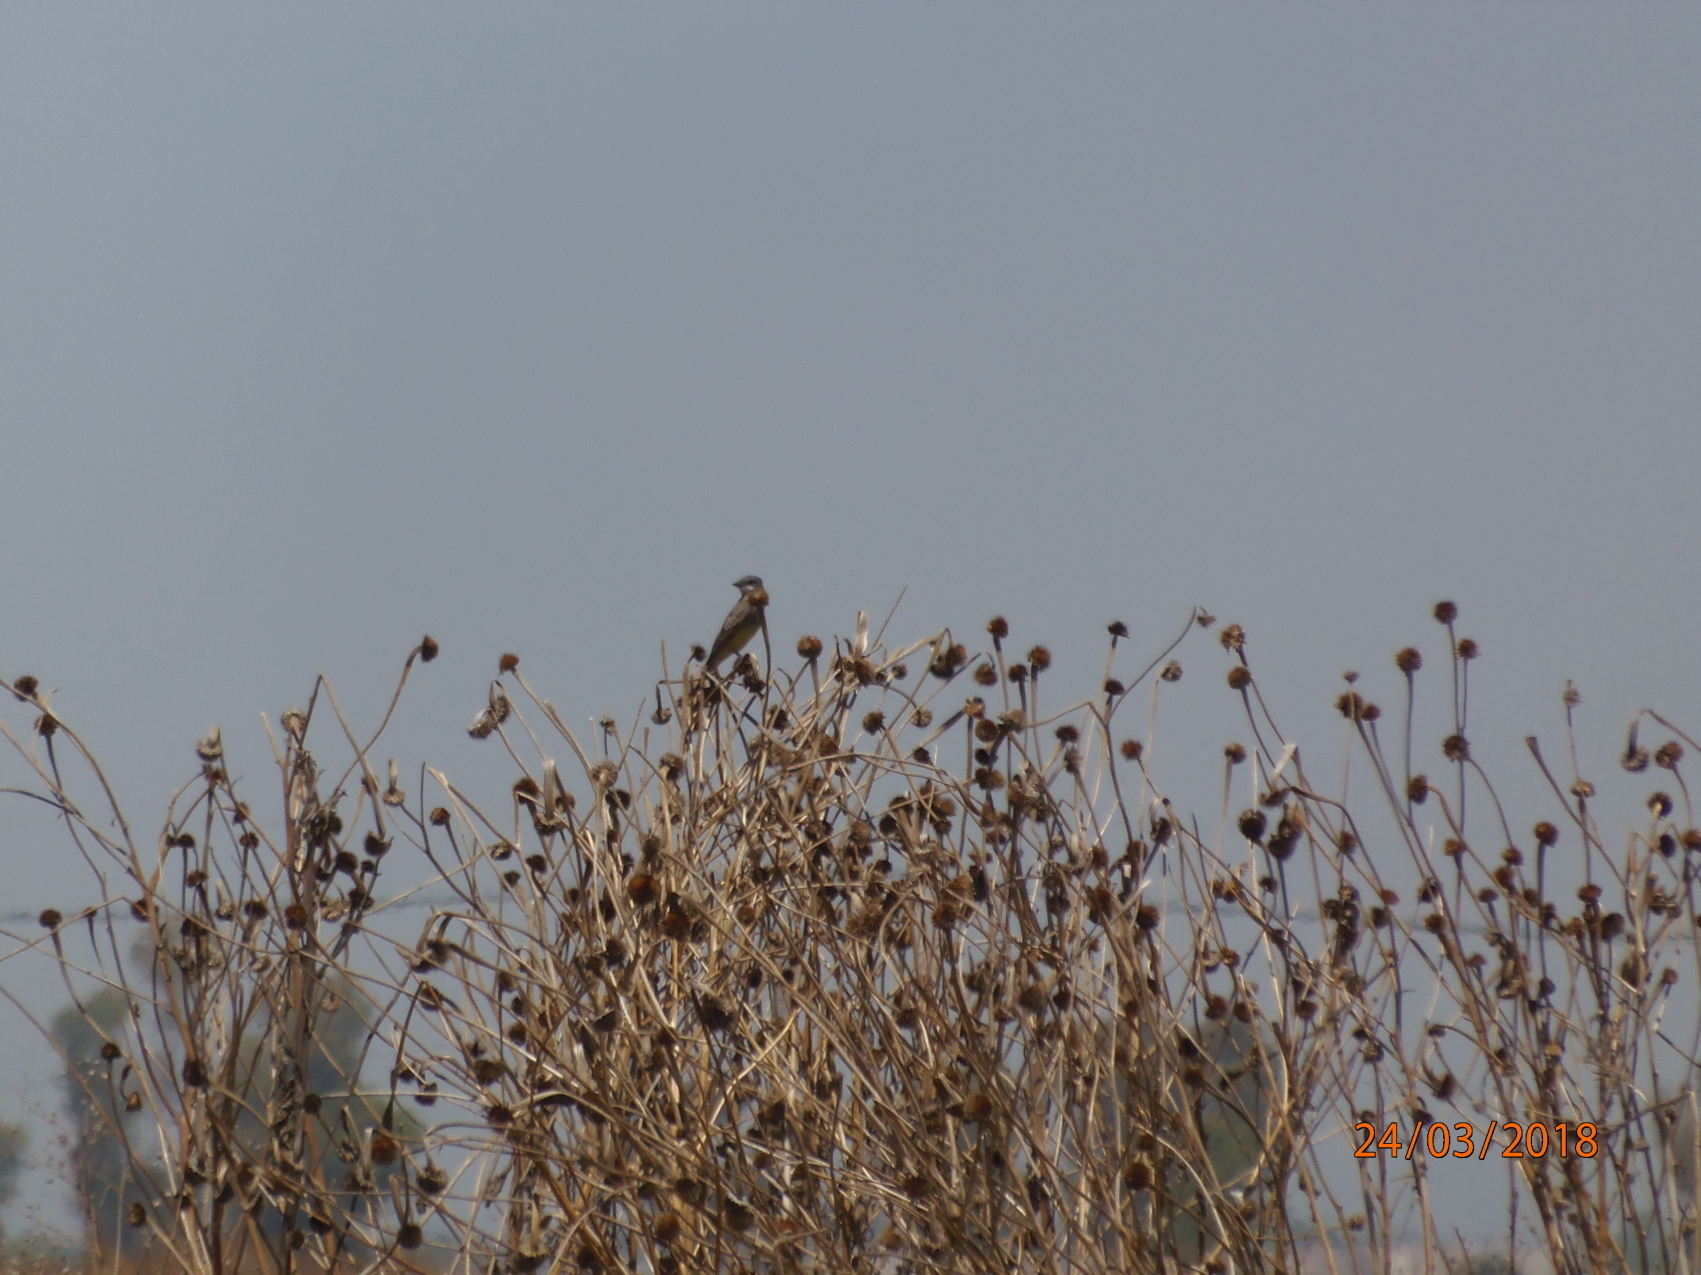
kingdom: Animalia
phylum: Chordata
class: Aves
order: Passeriformes
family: Tyrannidae
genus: Tyrannus
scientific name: Tyrannus vociferans
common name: Cassin's kingbird
